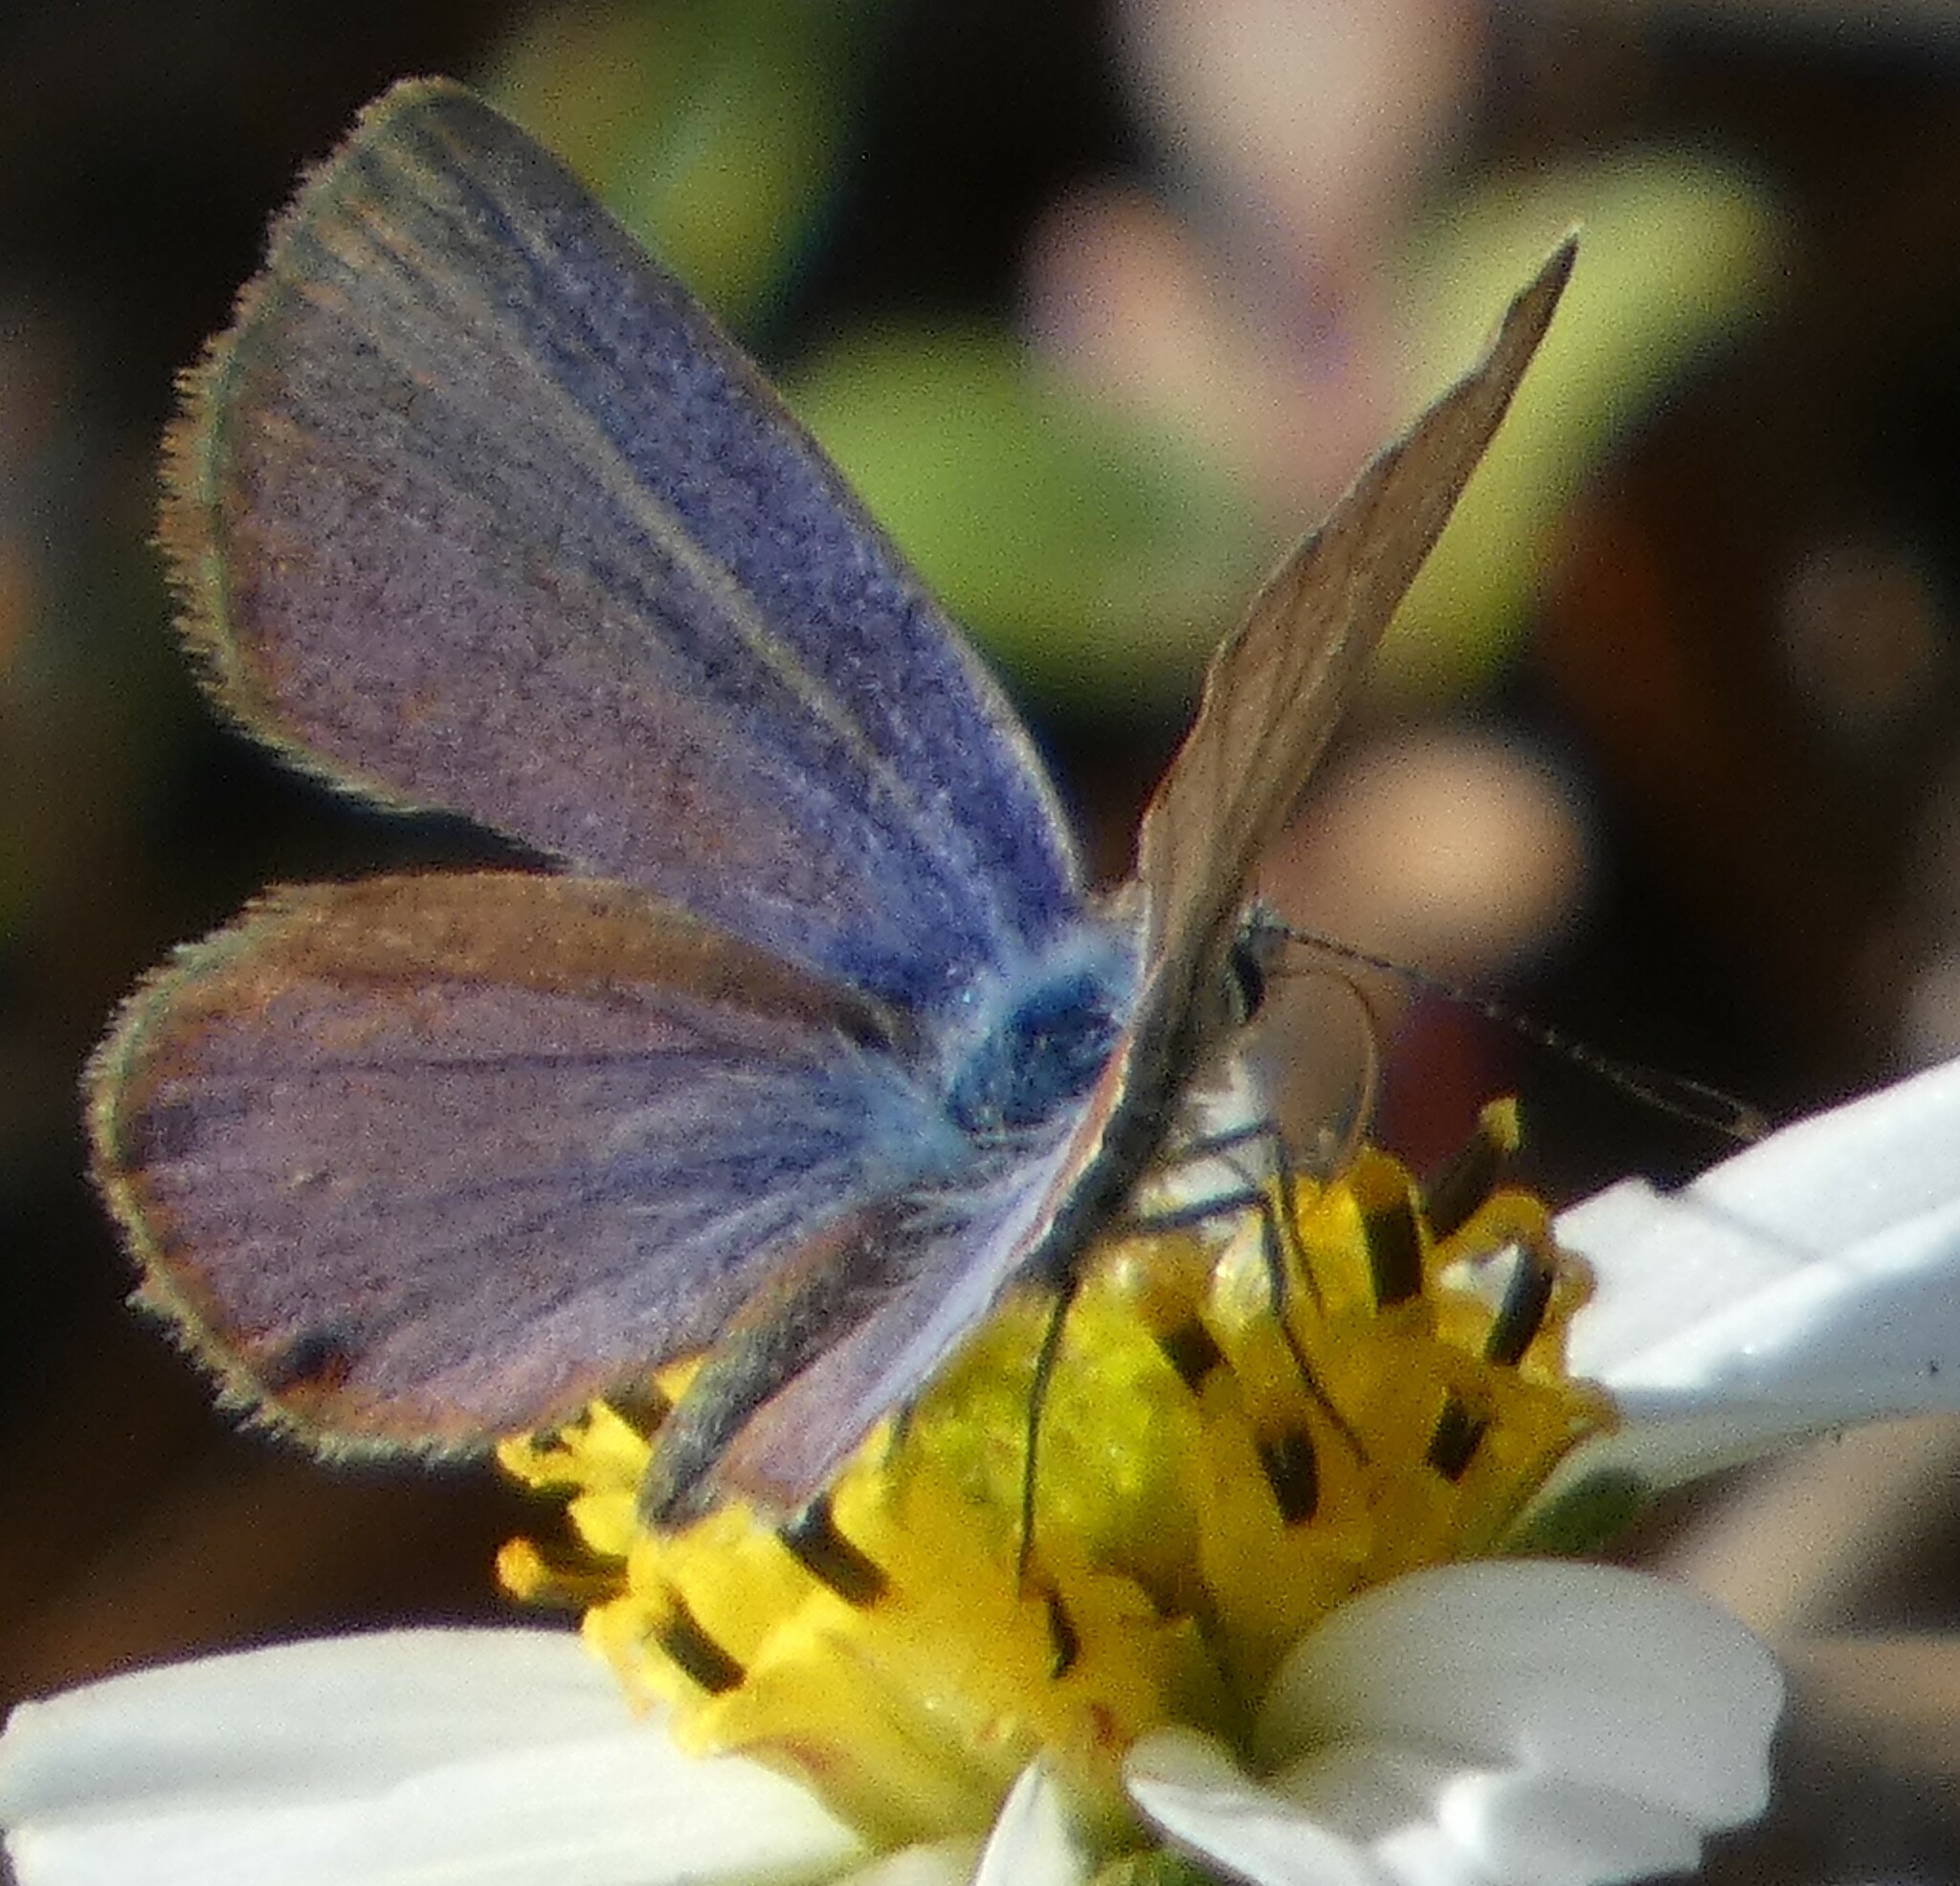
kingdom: Animalia
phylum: Arthropoda
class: Insecta
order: Lepidoptera
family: Lycaenidae
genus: Hemiargus
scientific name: Hemiargus ceraunus
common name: Ceraunus blue
